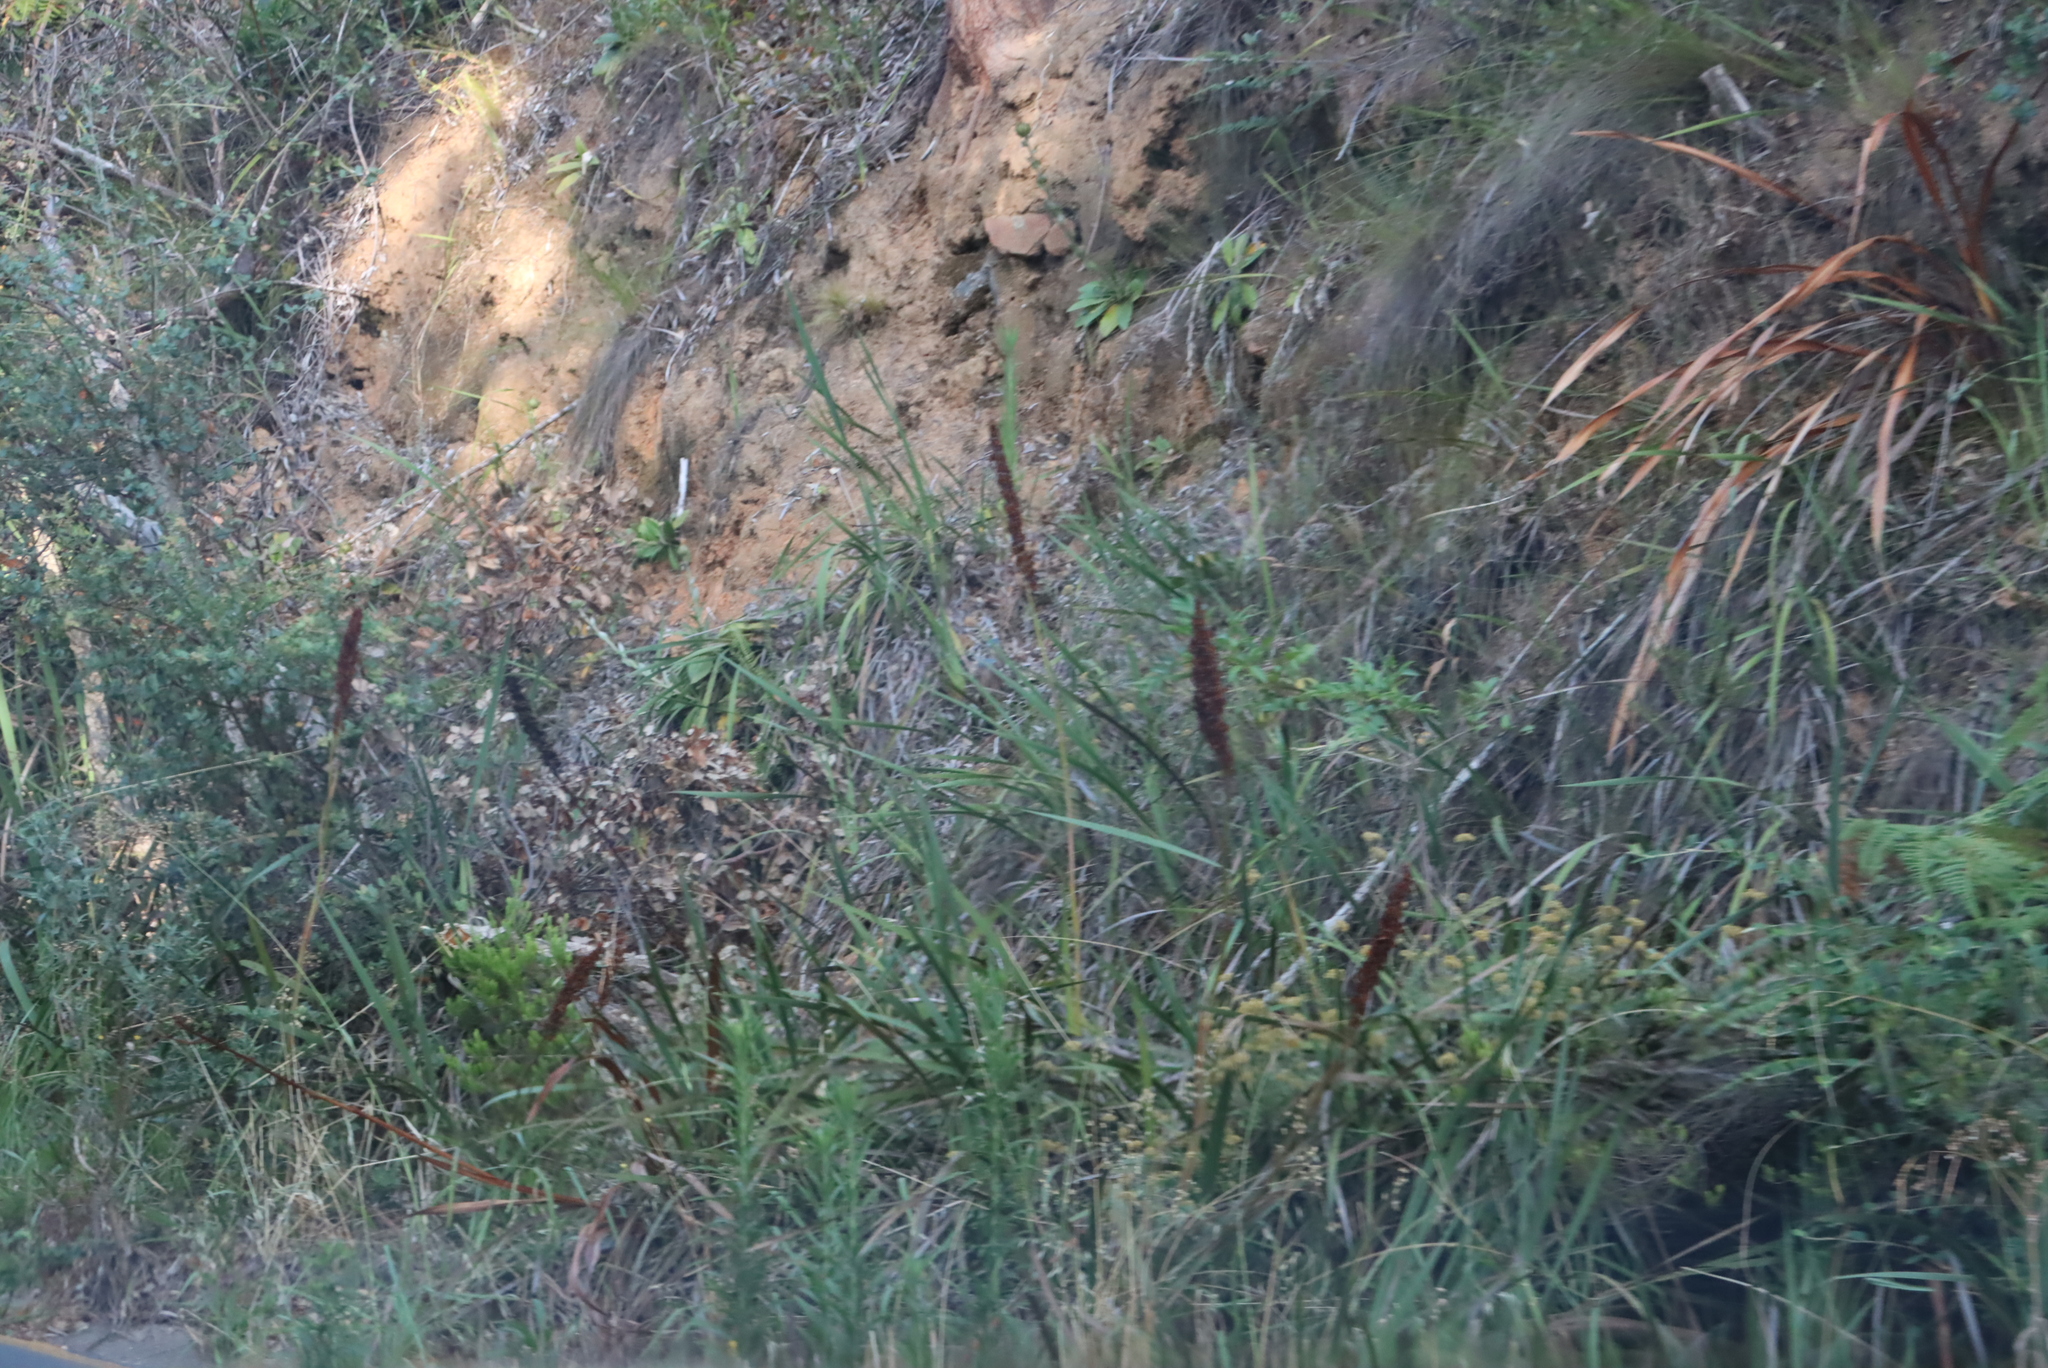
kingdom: Plantae
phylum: Tracheophyta
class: Magnoliopsida
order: Apiales
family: Apiaceae
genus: Daucus
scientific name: Daucus carota
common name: Wild carrot
